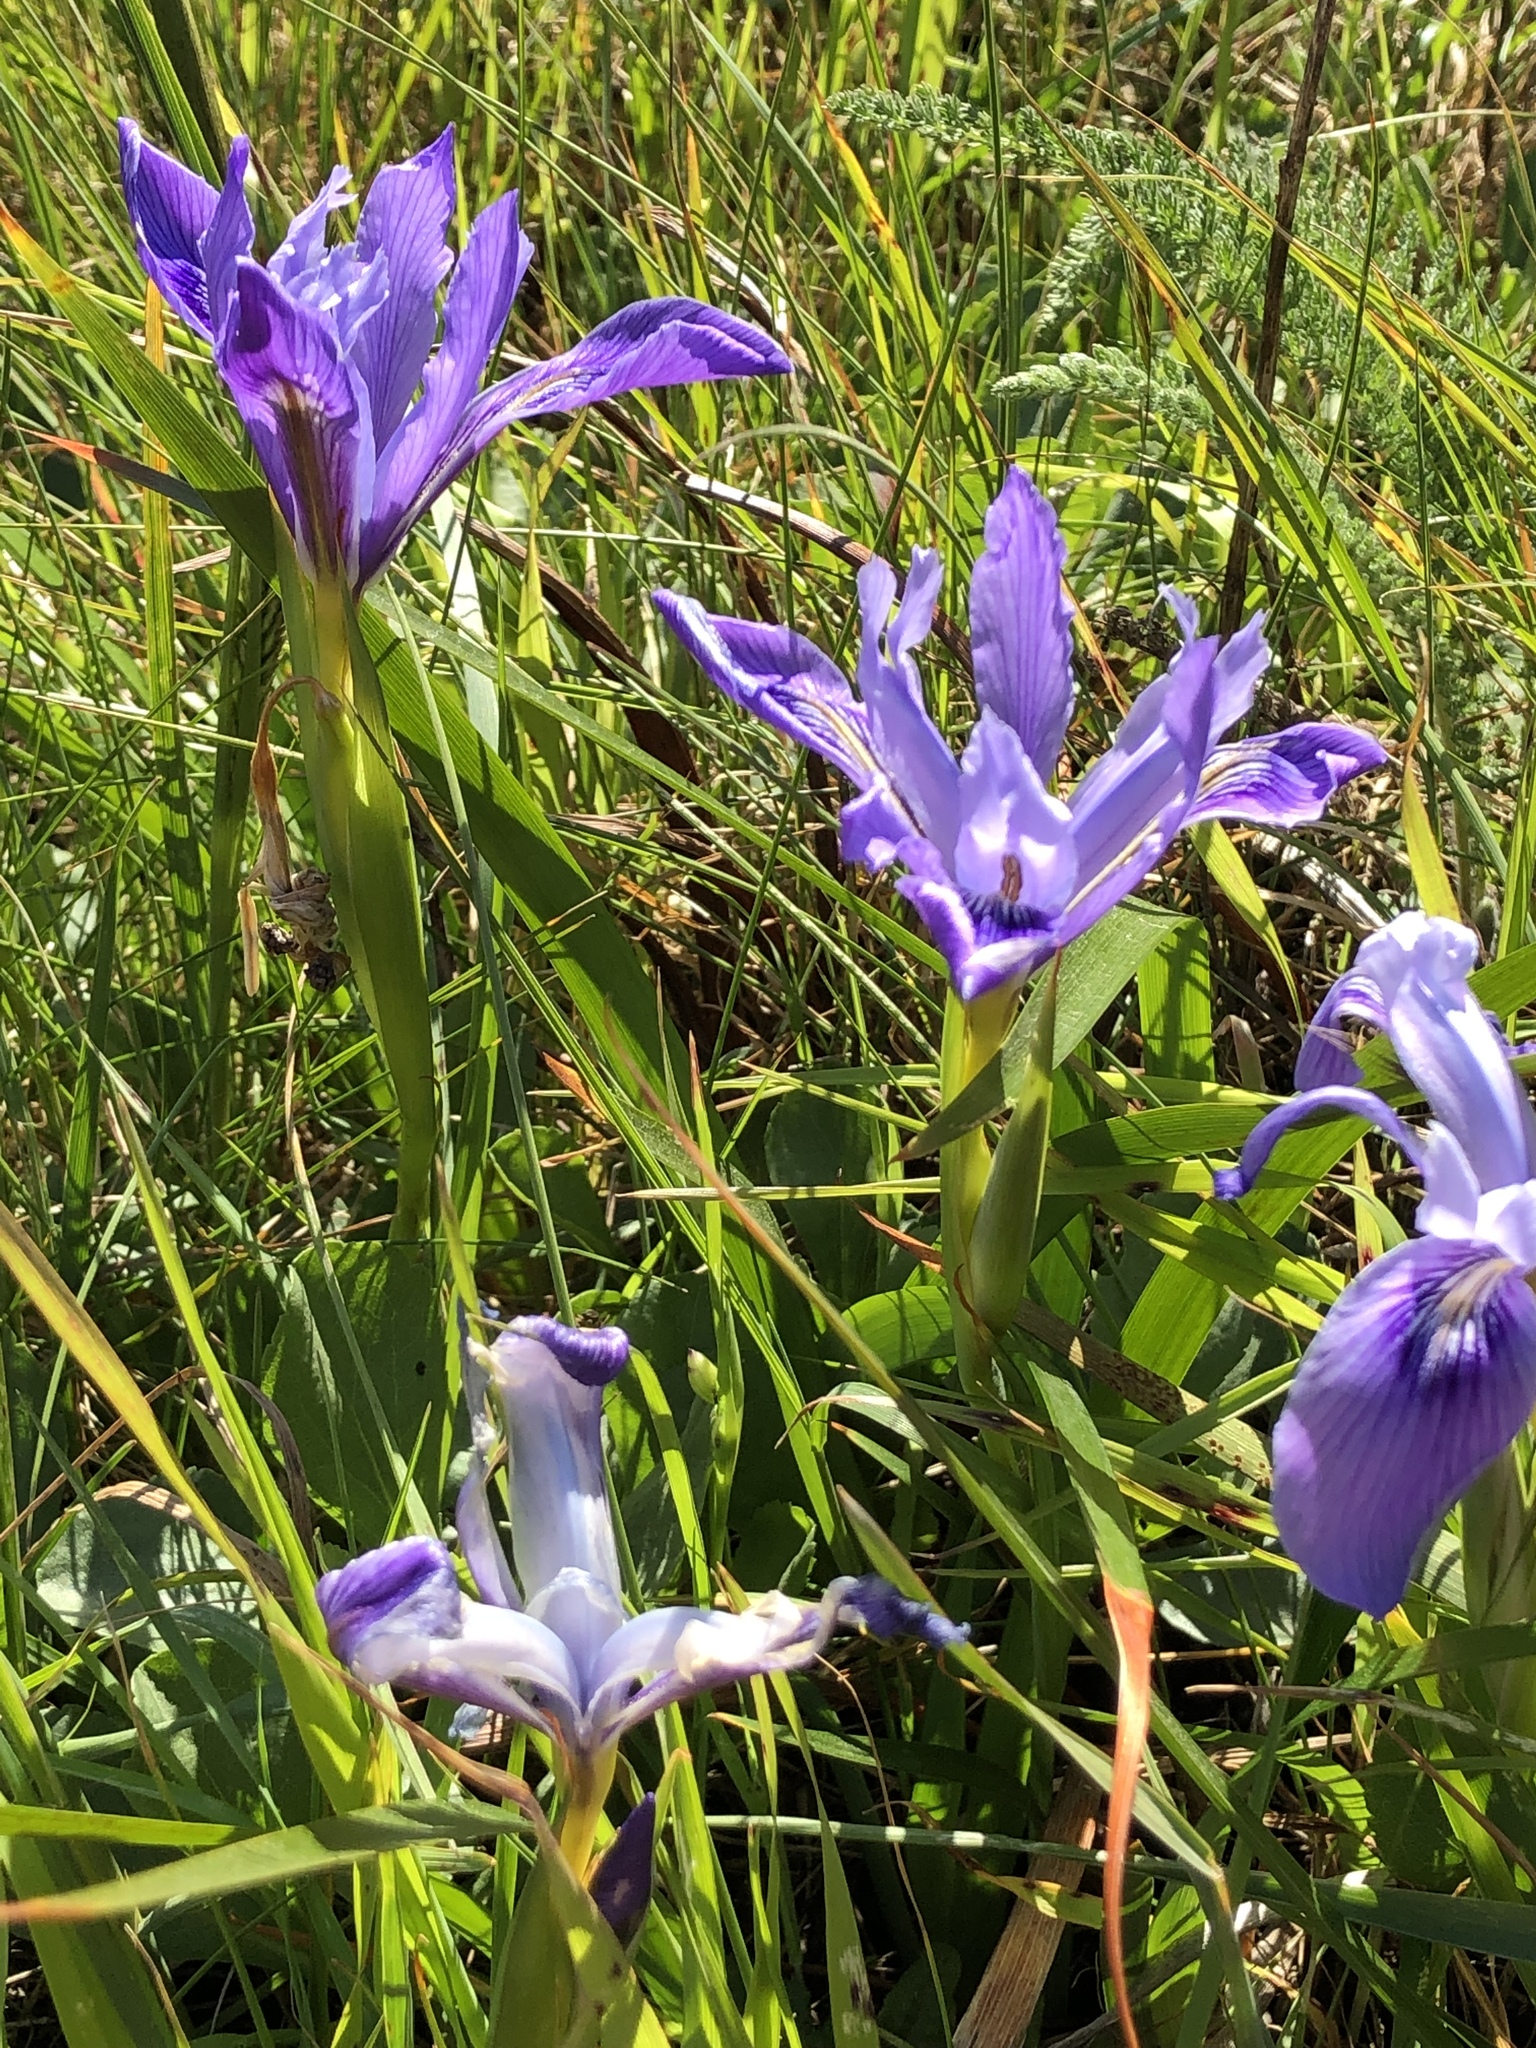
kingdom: Plantae
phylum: Tracheophyta
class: Liliopsida
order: Asparagales
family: Iridaceae
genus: Iris
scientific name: Iris douglasiana
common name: Marin iris
